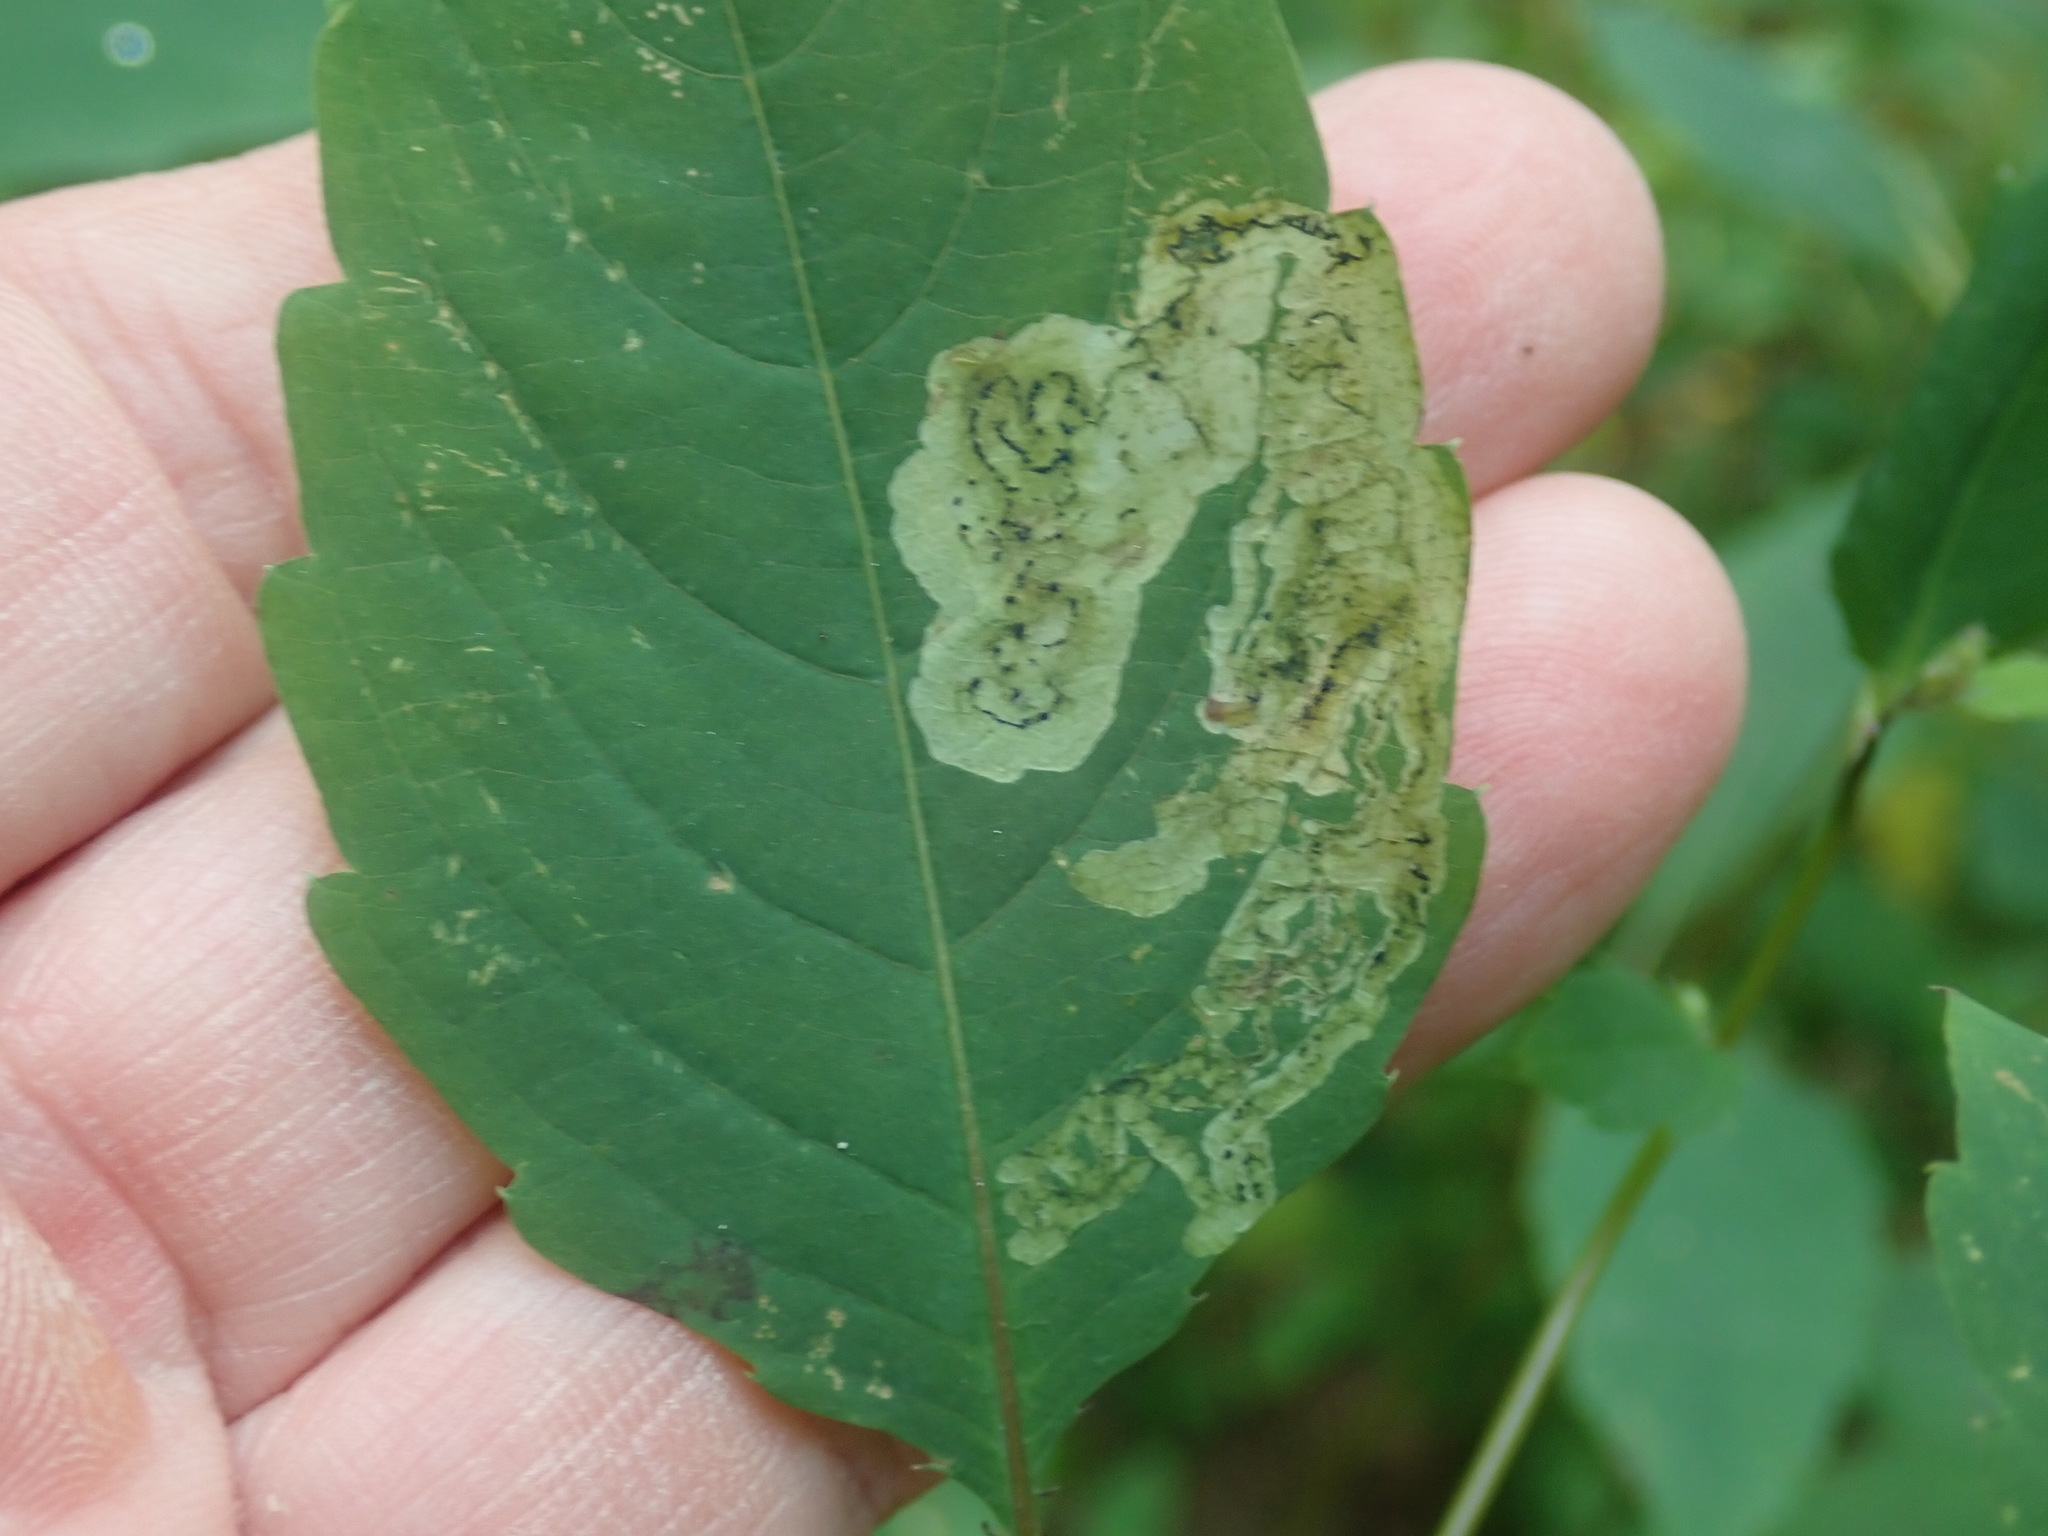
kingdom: Animalia
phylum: Arthropoda
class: Insecta
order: Diptera
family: Agromyzidae
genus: Phytoliriomyza
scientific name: Phytoliriomyza melampyga
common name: Jewelweed leaf-miner fly
